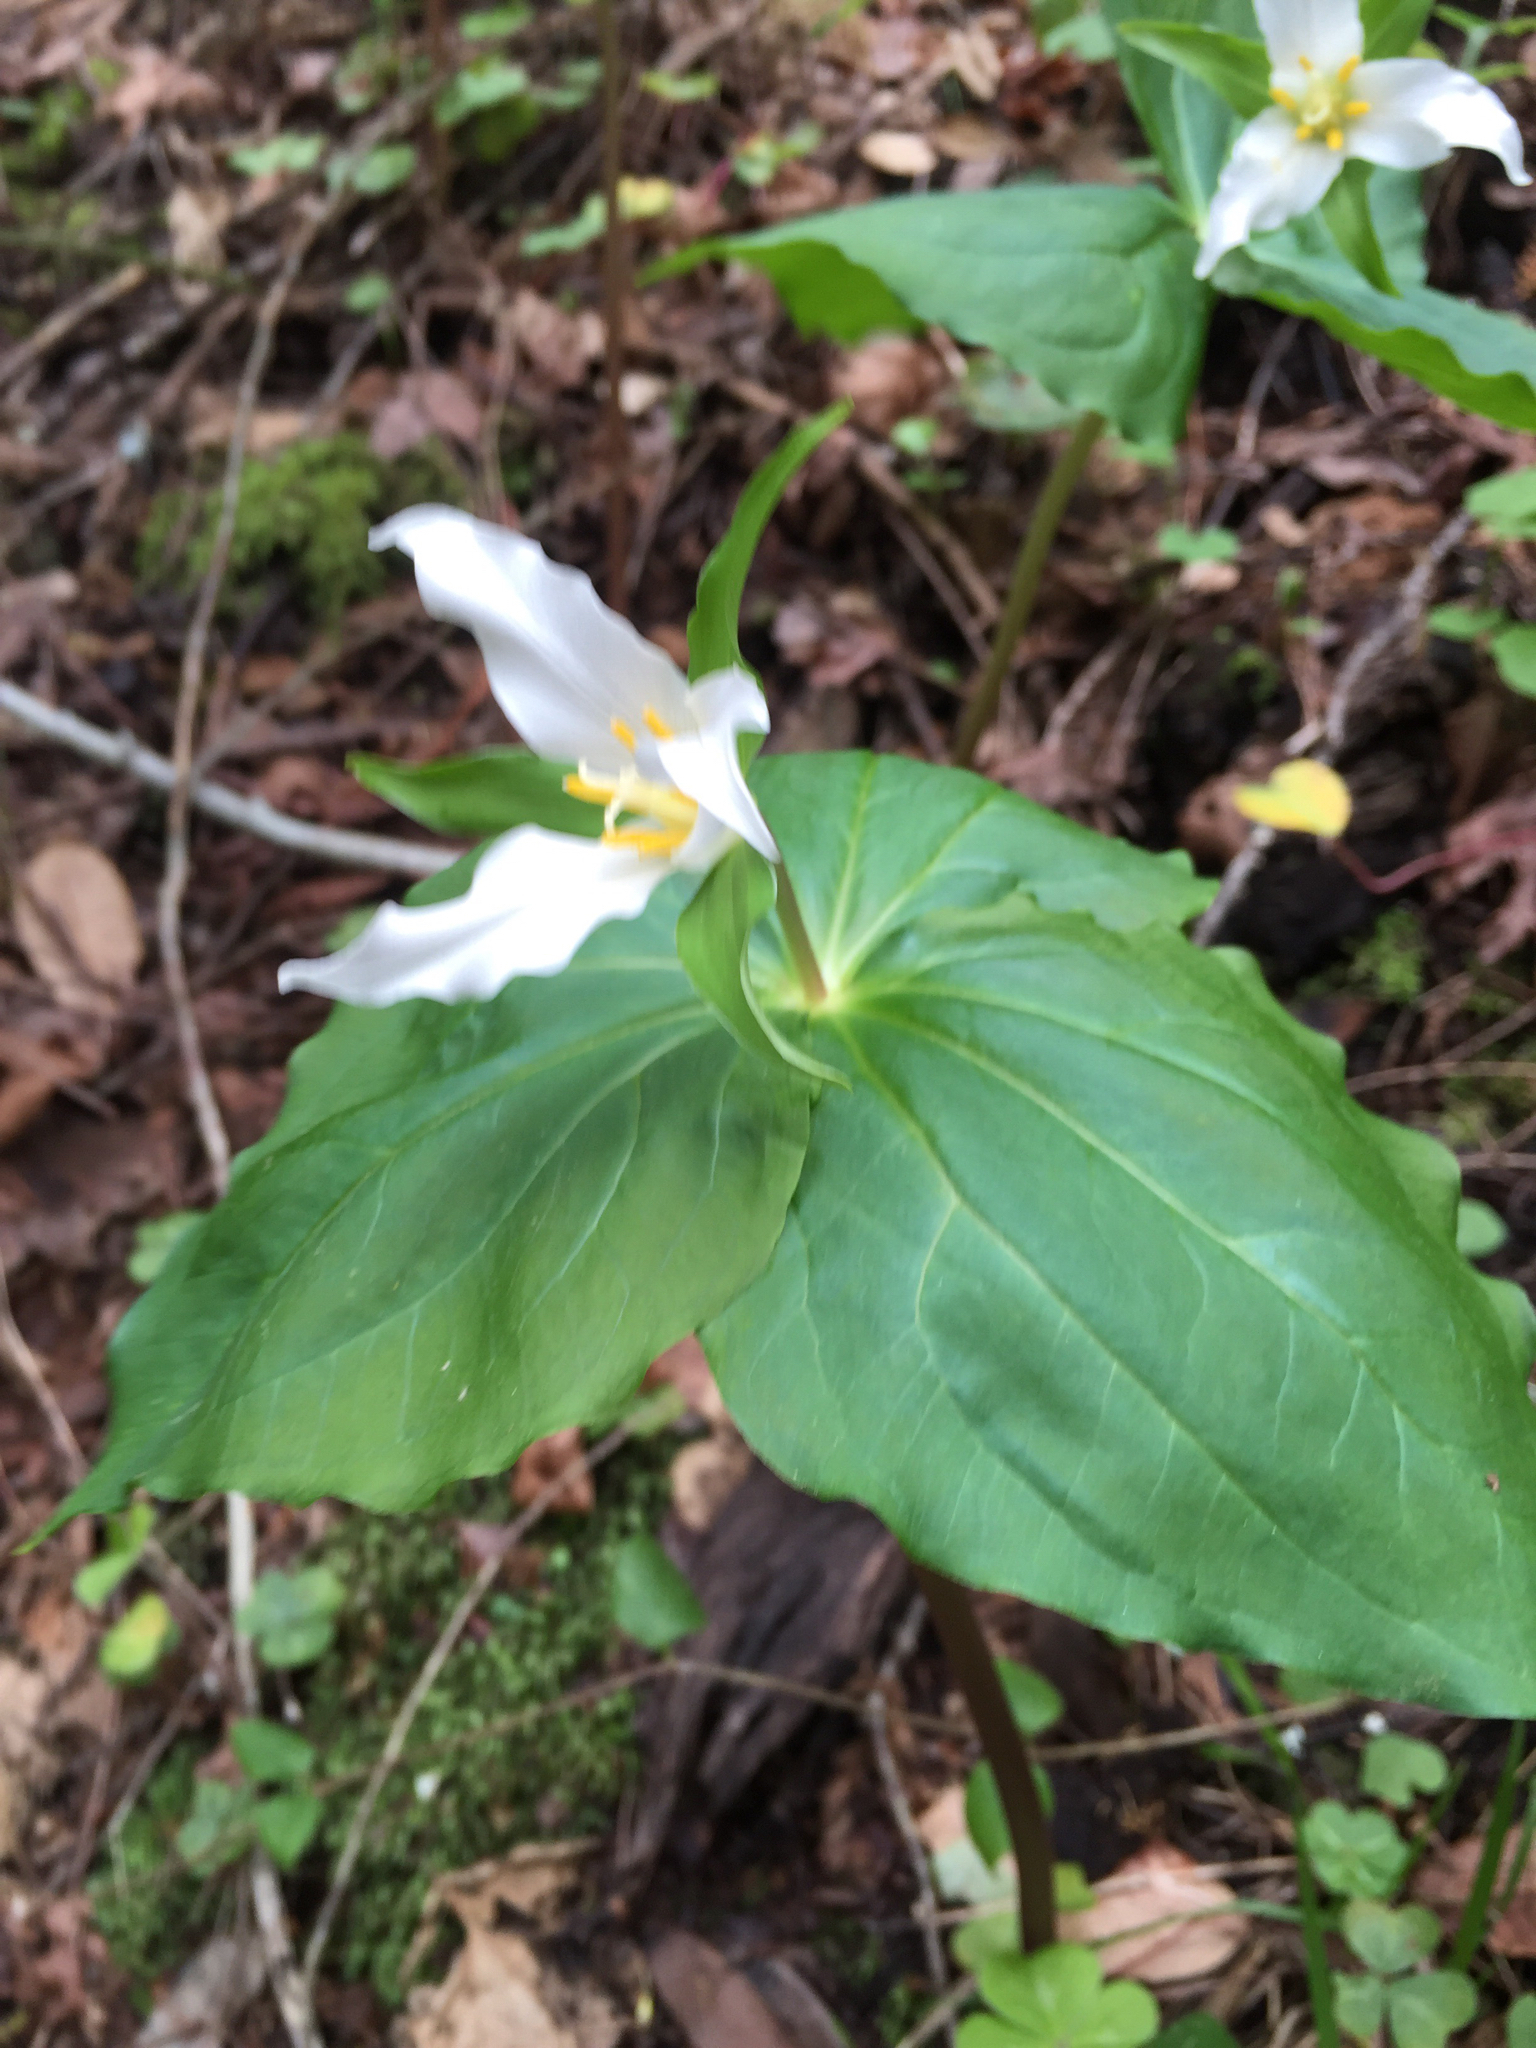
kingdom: Plantae
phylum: Tracheophyta
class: Liliopsida
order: Liliales
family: Melanthiaceae
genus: Trillium
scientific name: Trillium ovatum
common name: Pacific trillium
